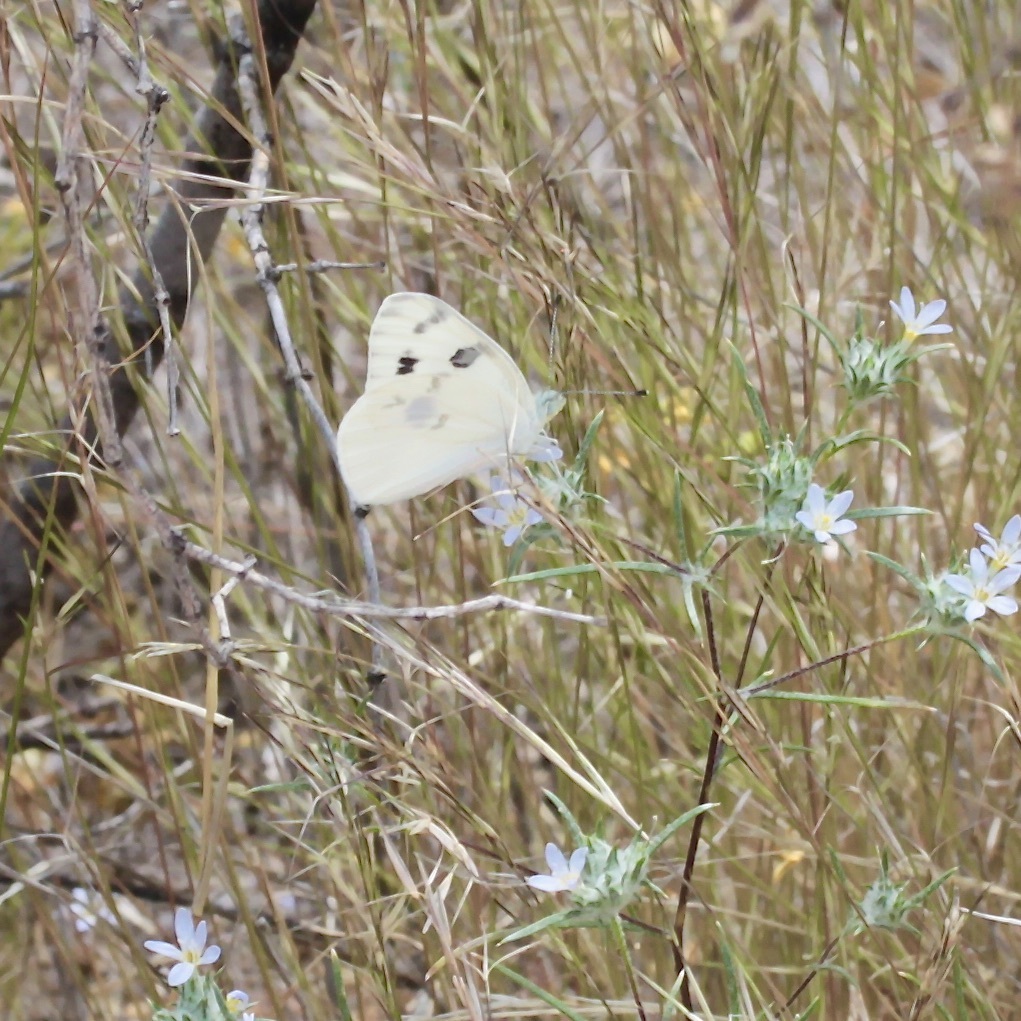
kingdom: Animalia
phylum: Arthropoda
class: Insecta
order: Lepidoptera
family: Pieridae
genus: Pontia
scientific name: Pontia protodice
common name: Checkered white
